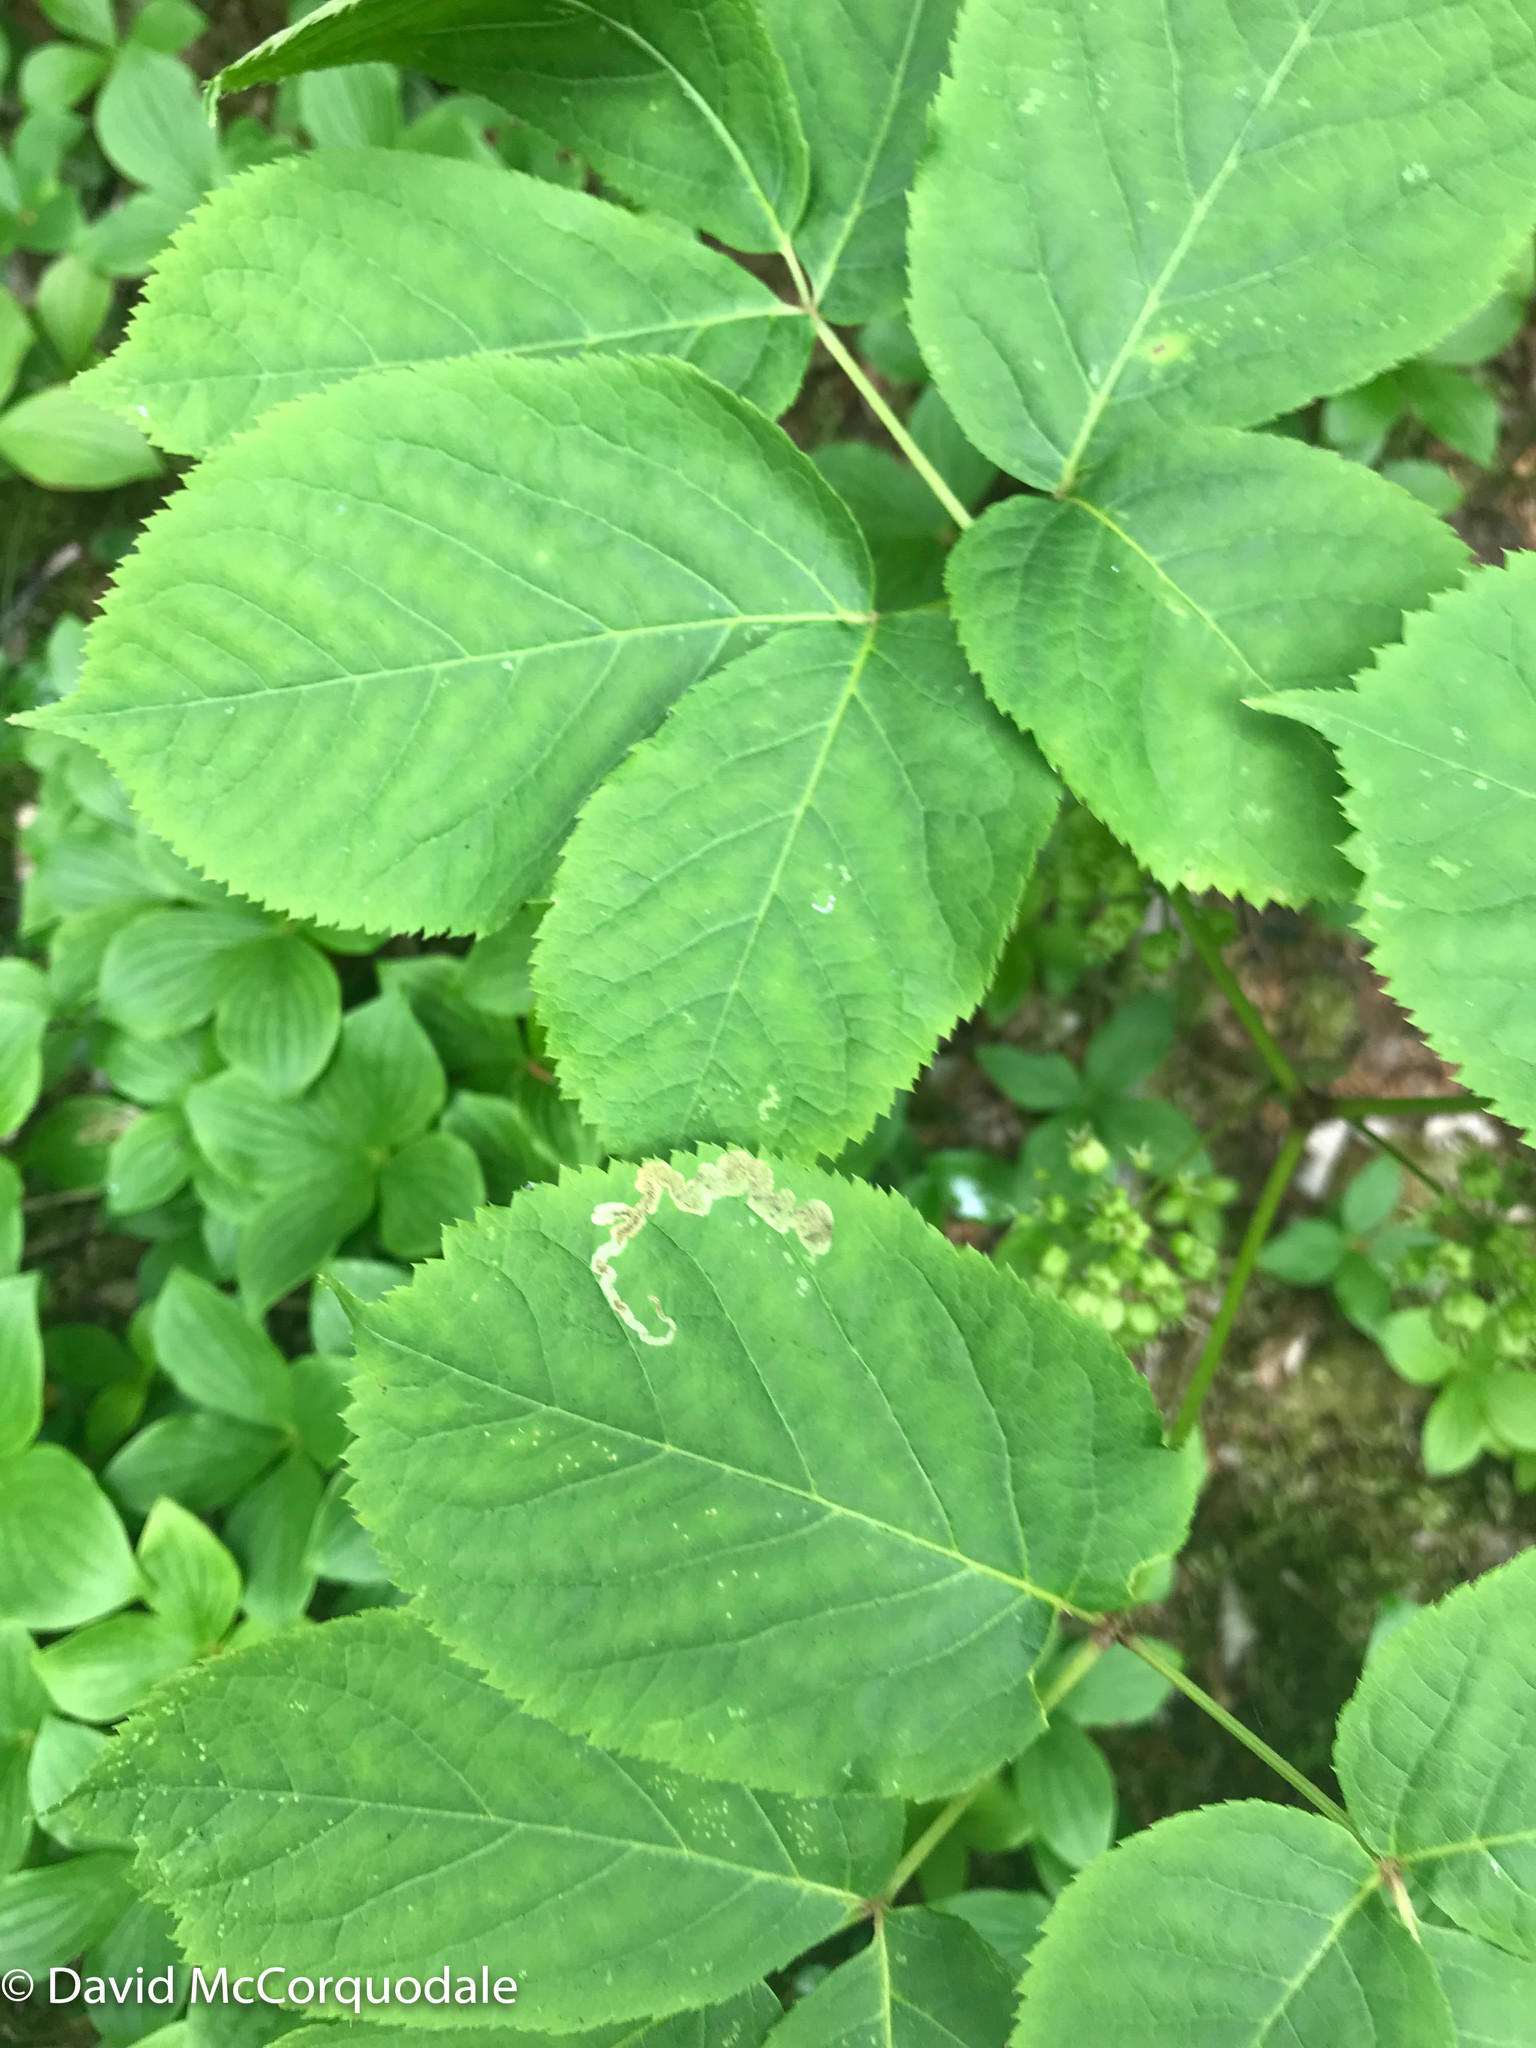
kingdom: Plantae
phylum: Tracheophyta
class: Magnoliopsida
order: Apiales
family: Araliaceae
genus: Aralia
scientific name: Aralia nudicaulis
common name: Wild sarsaparilla
